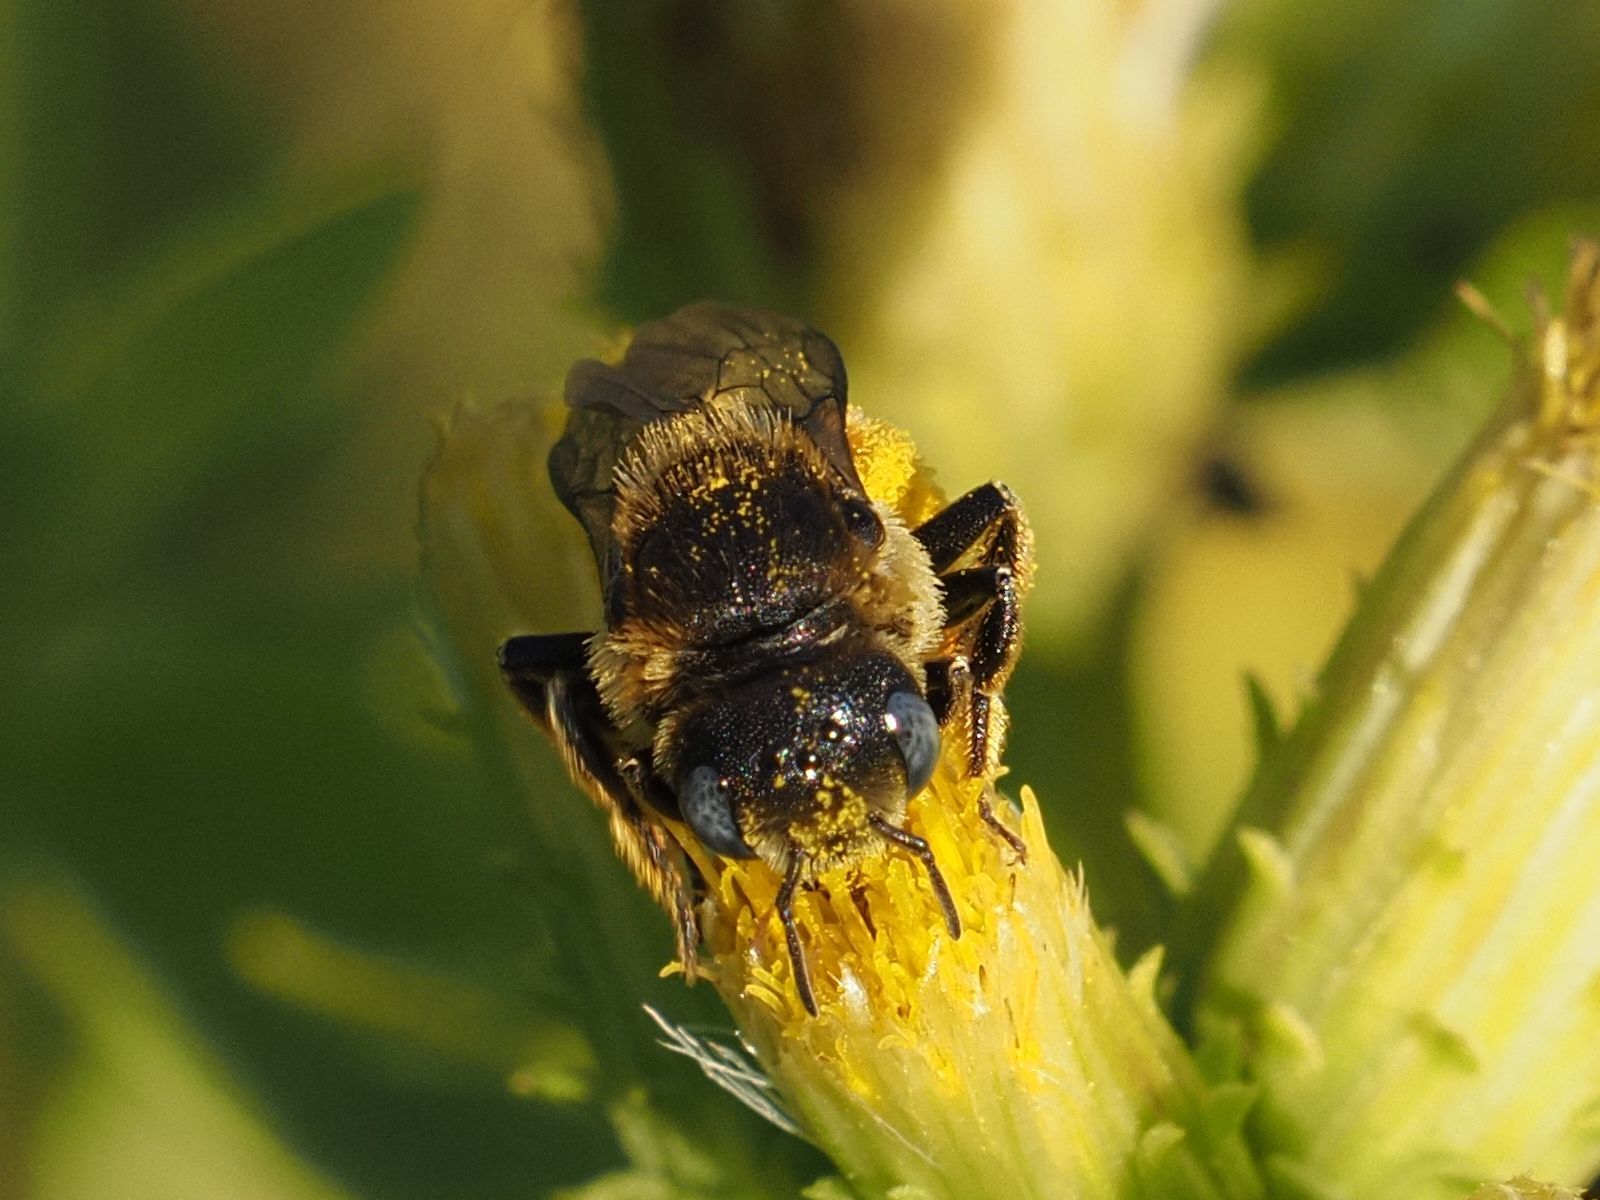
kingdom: Animalia
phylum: Arthropoda
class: Insecta
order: Hymenoptera
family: Megachilidae
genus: Osmia
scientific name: Osmia spinulosa
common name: Spined mason bee
